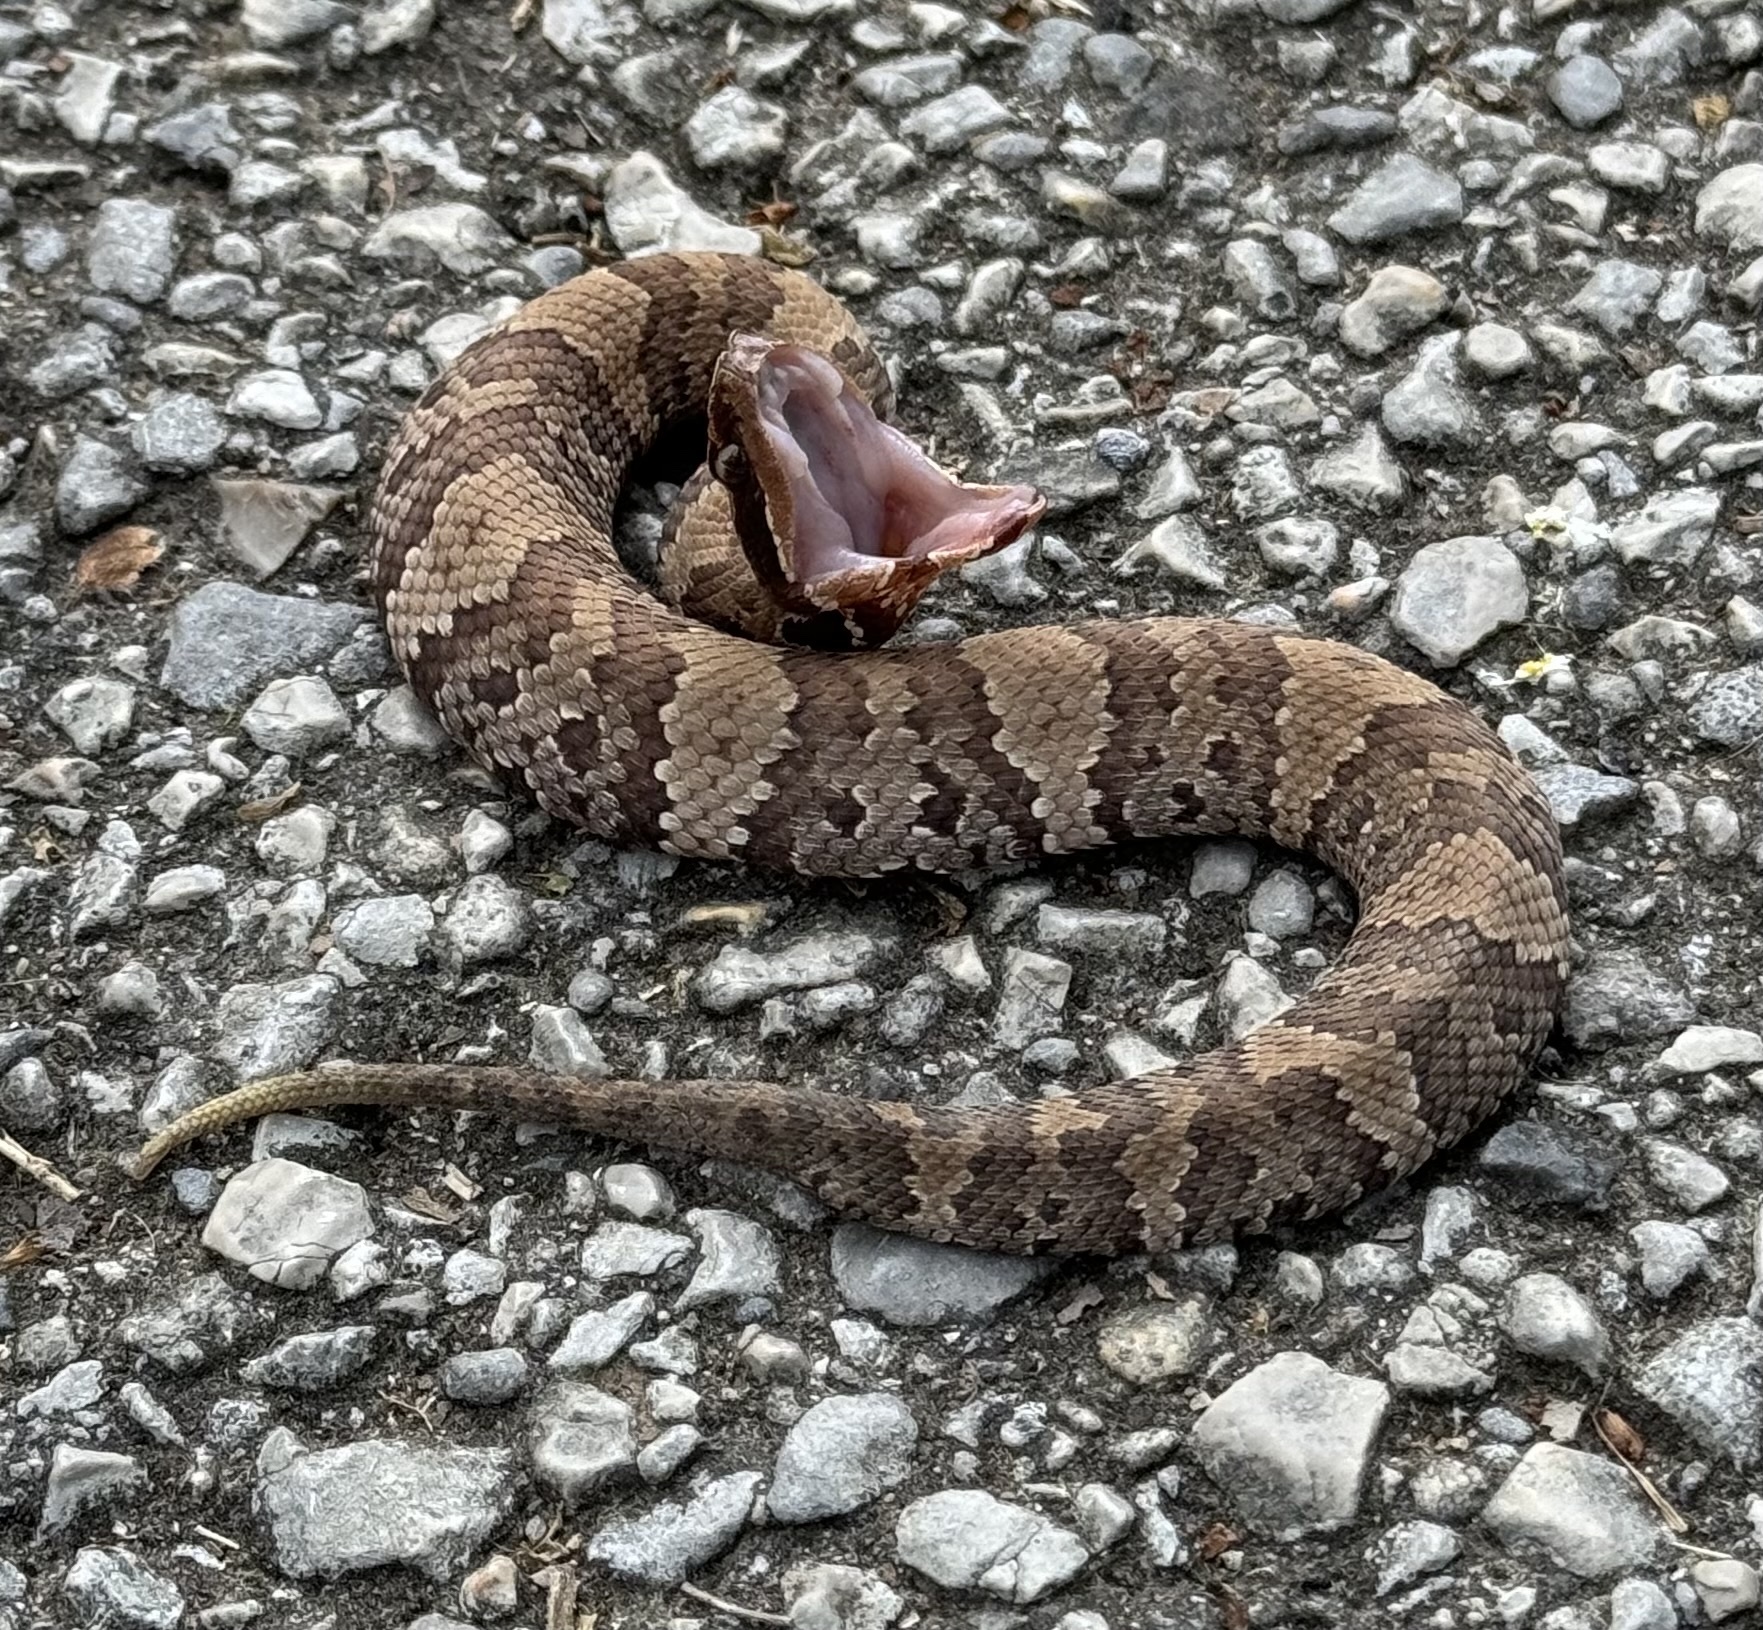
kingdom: Animalia
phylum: Chordata
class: Squamata
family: Viperidae
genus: Agkistrodon
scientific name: Agkistrodon piscivorus
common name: Cottonmouth
